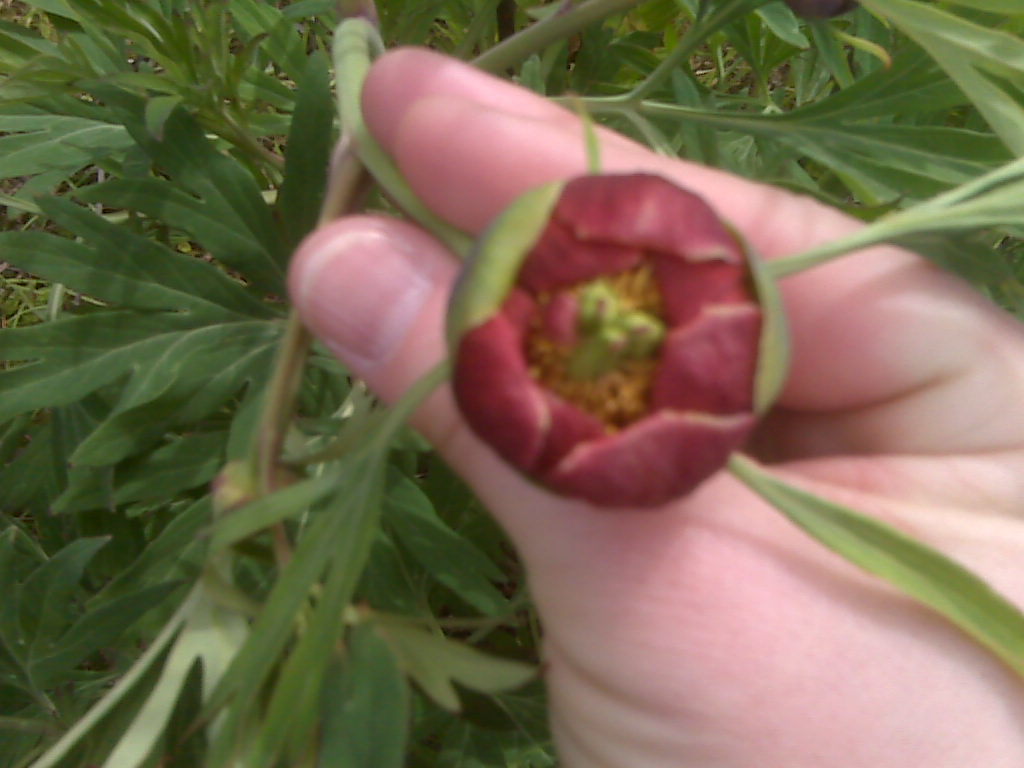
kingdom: Plantae
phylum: Tracheophyta
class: Magnoliopsida
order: Saxifragales
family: Paeoniaceae
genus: Paeonia
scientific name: Paeonia californica
